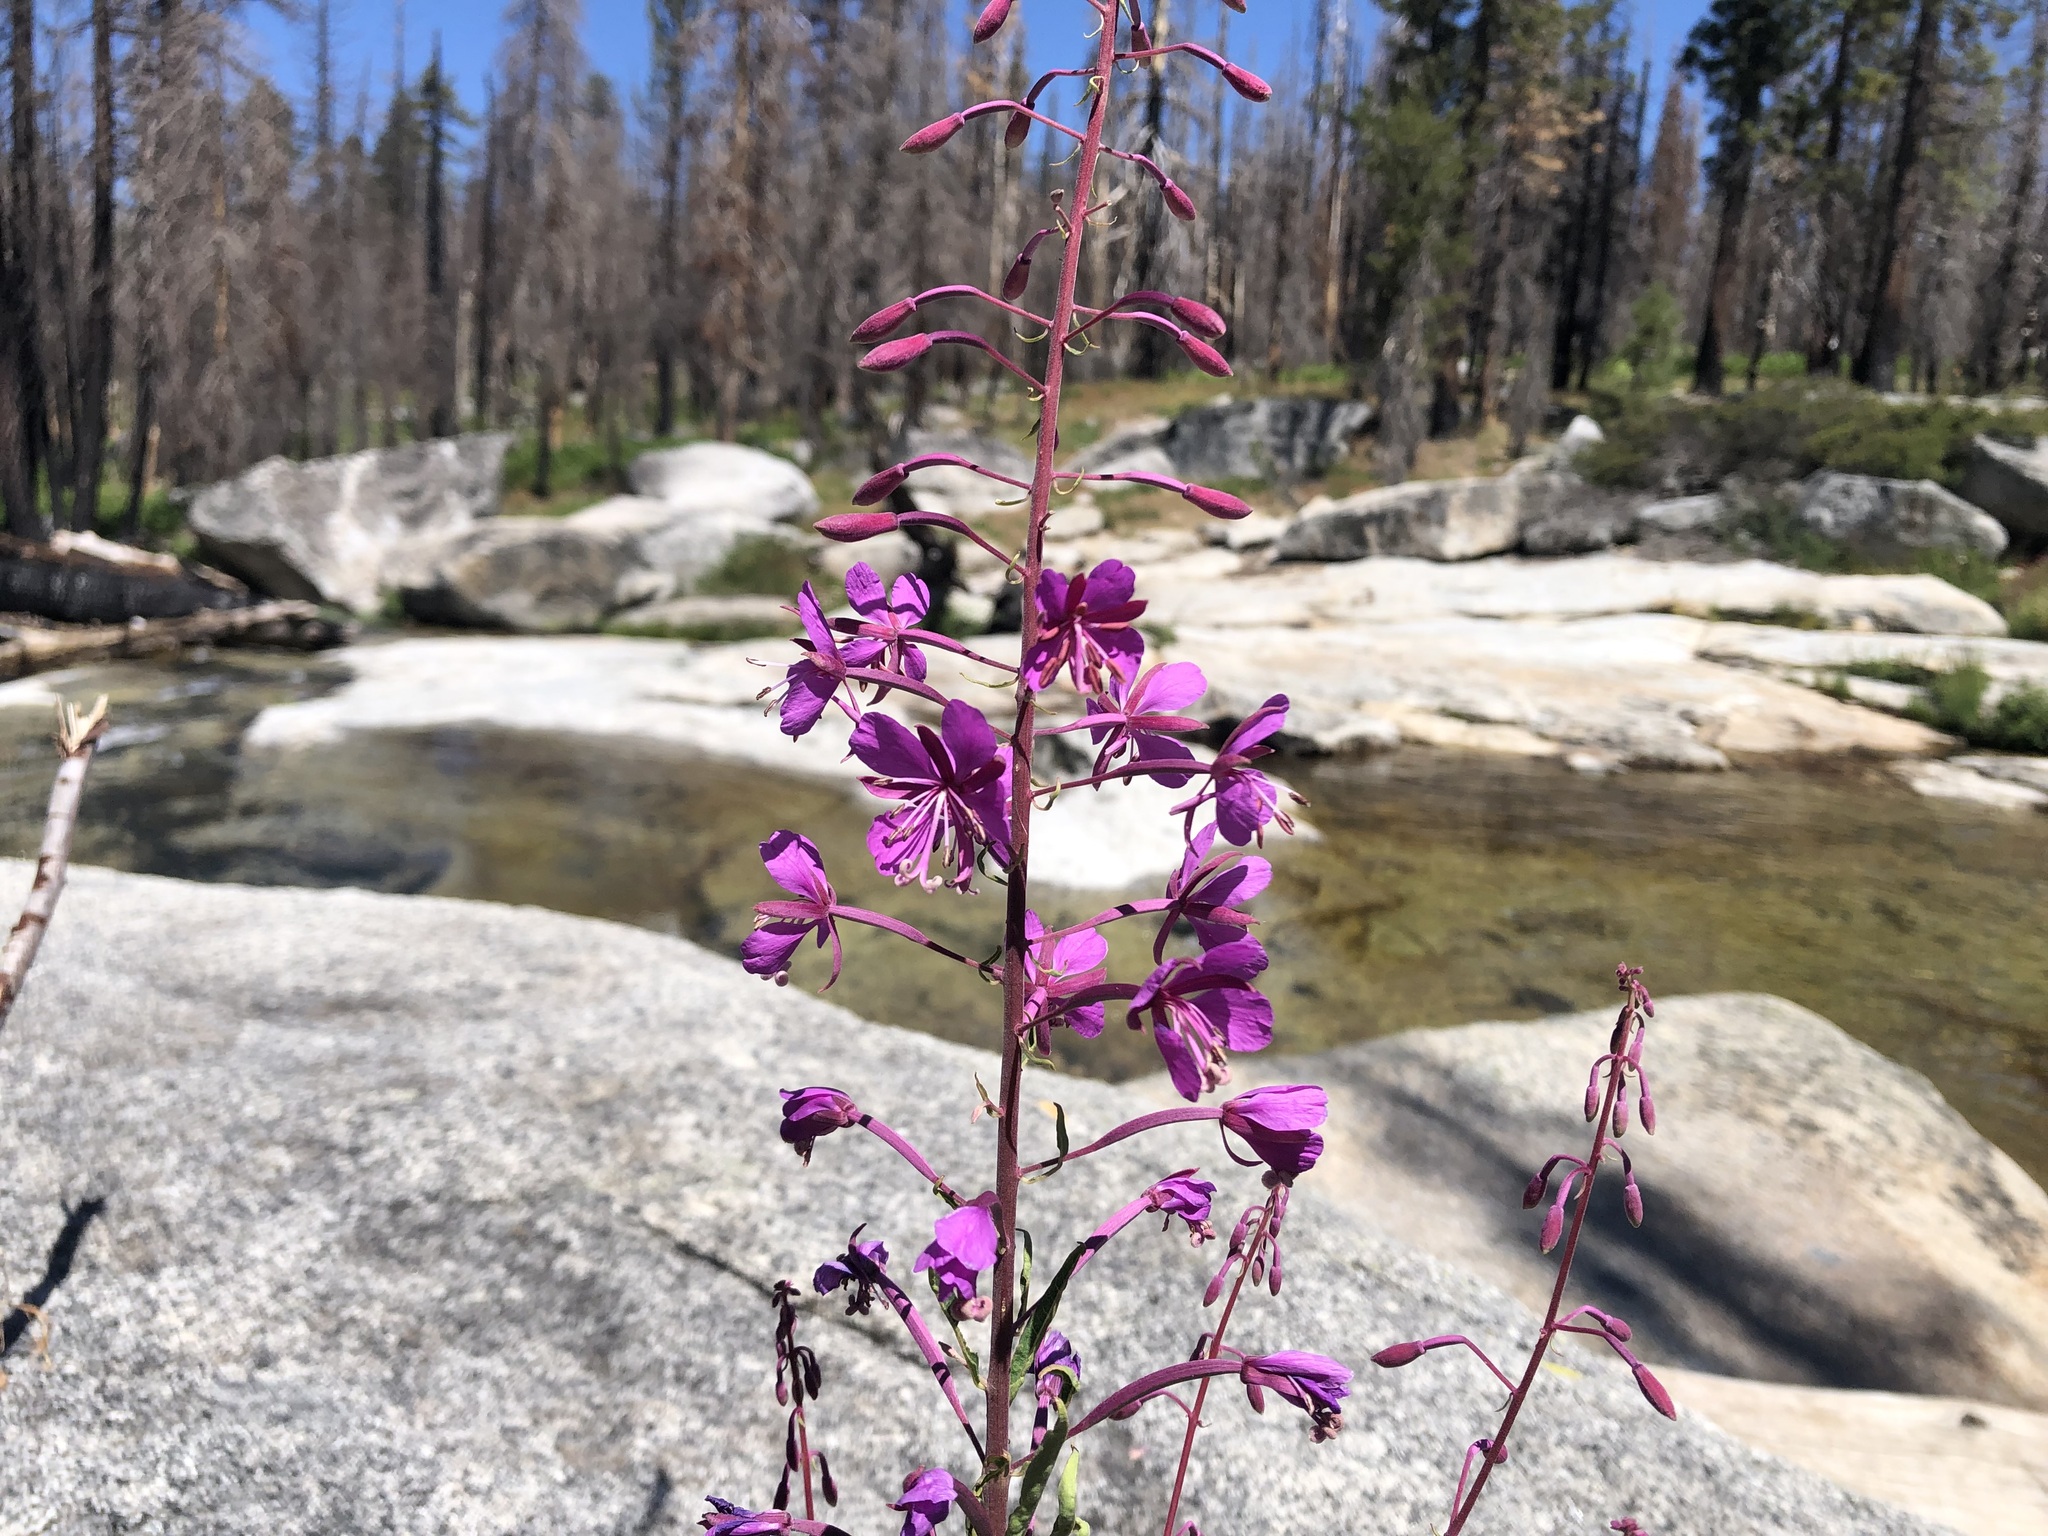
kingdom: Plantae
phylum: Tracheophyta
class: Magnoliopsida
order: Myrtales
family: Onagraceae
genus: Chamaenerion
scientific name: Chamaenerion angustifolium
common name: Fireweed
